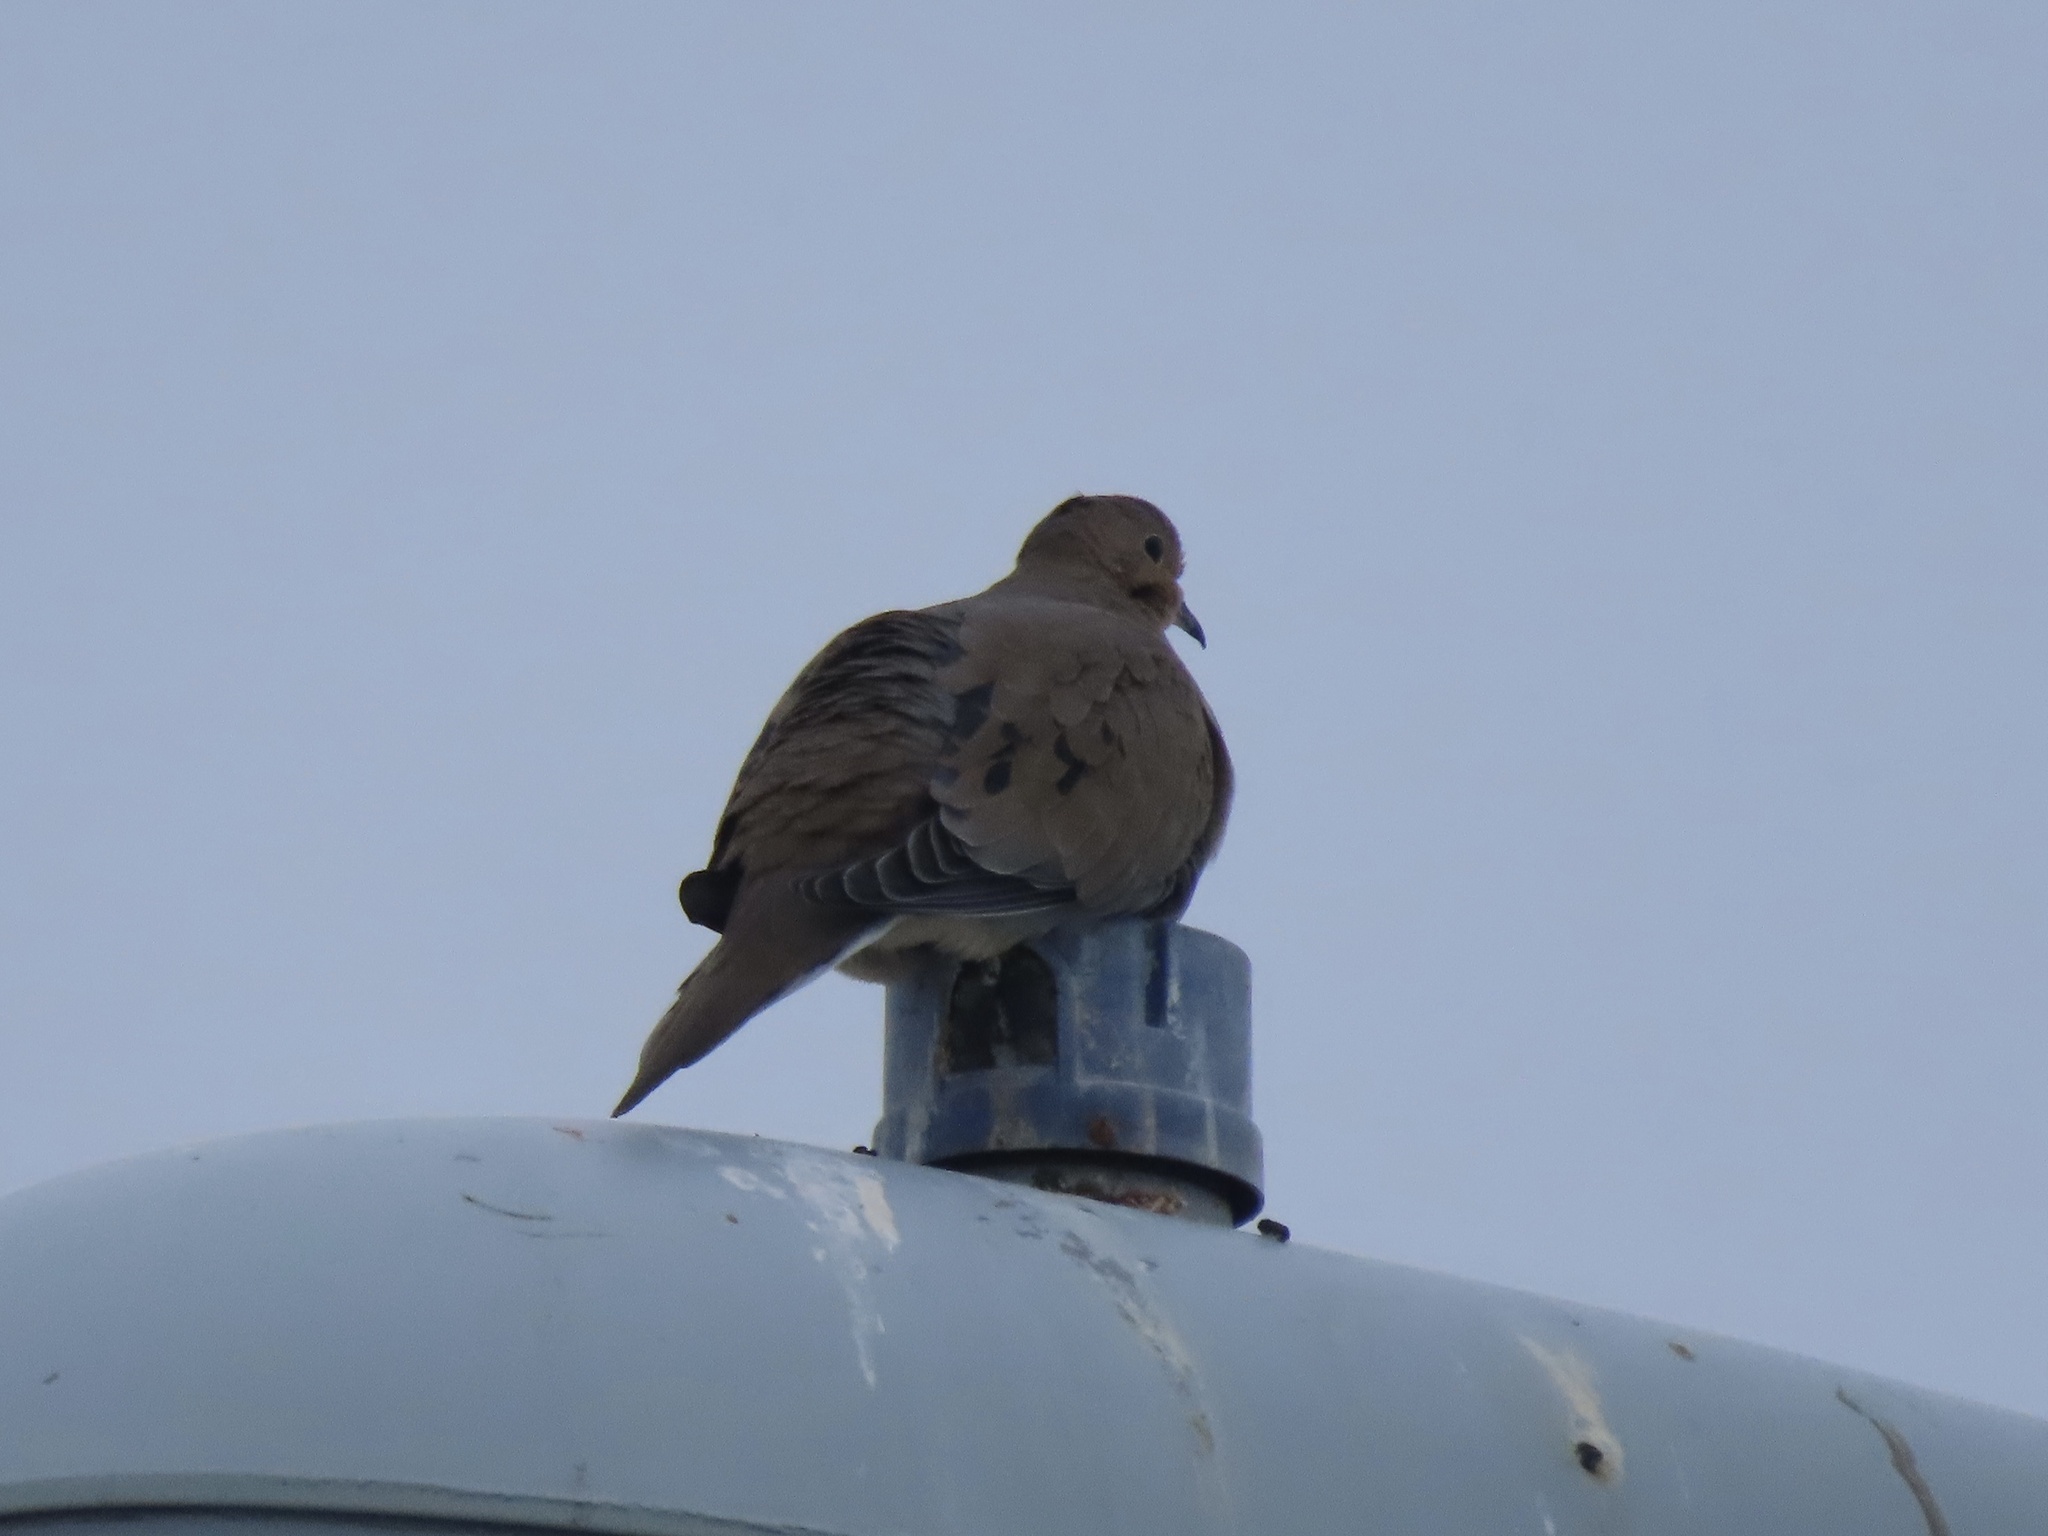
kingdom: Animalia
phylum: Chordata
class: Aves
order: Columbiformes
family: Columbidae
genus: Zenaida
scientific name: Zenaida macroura
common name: Mourning dove
